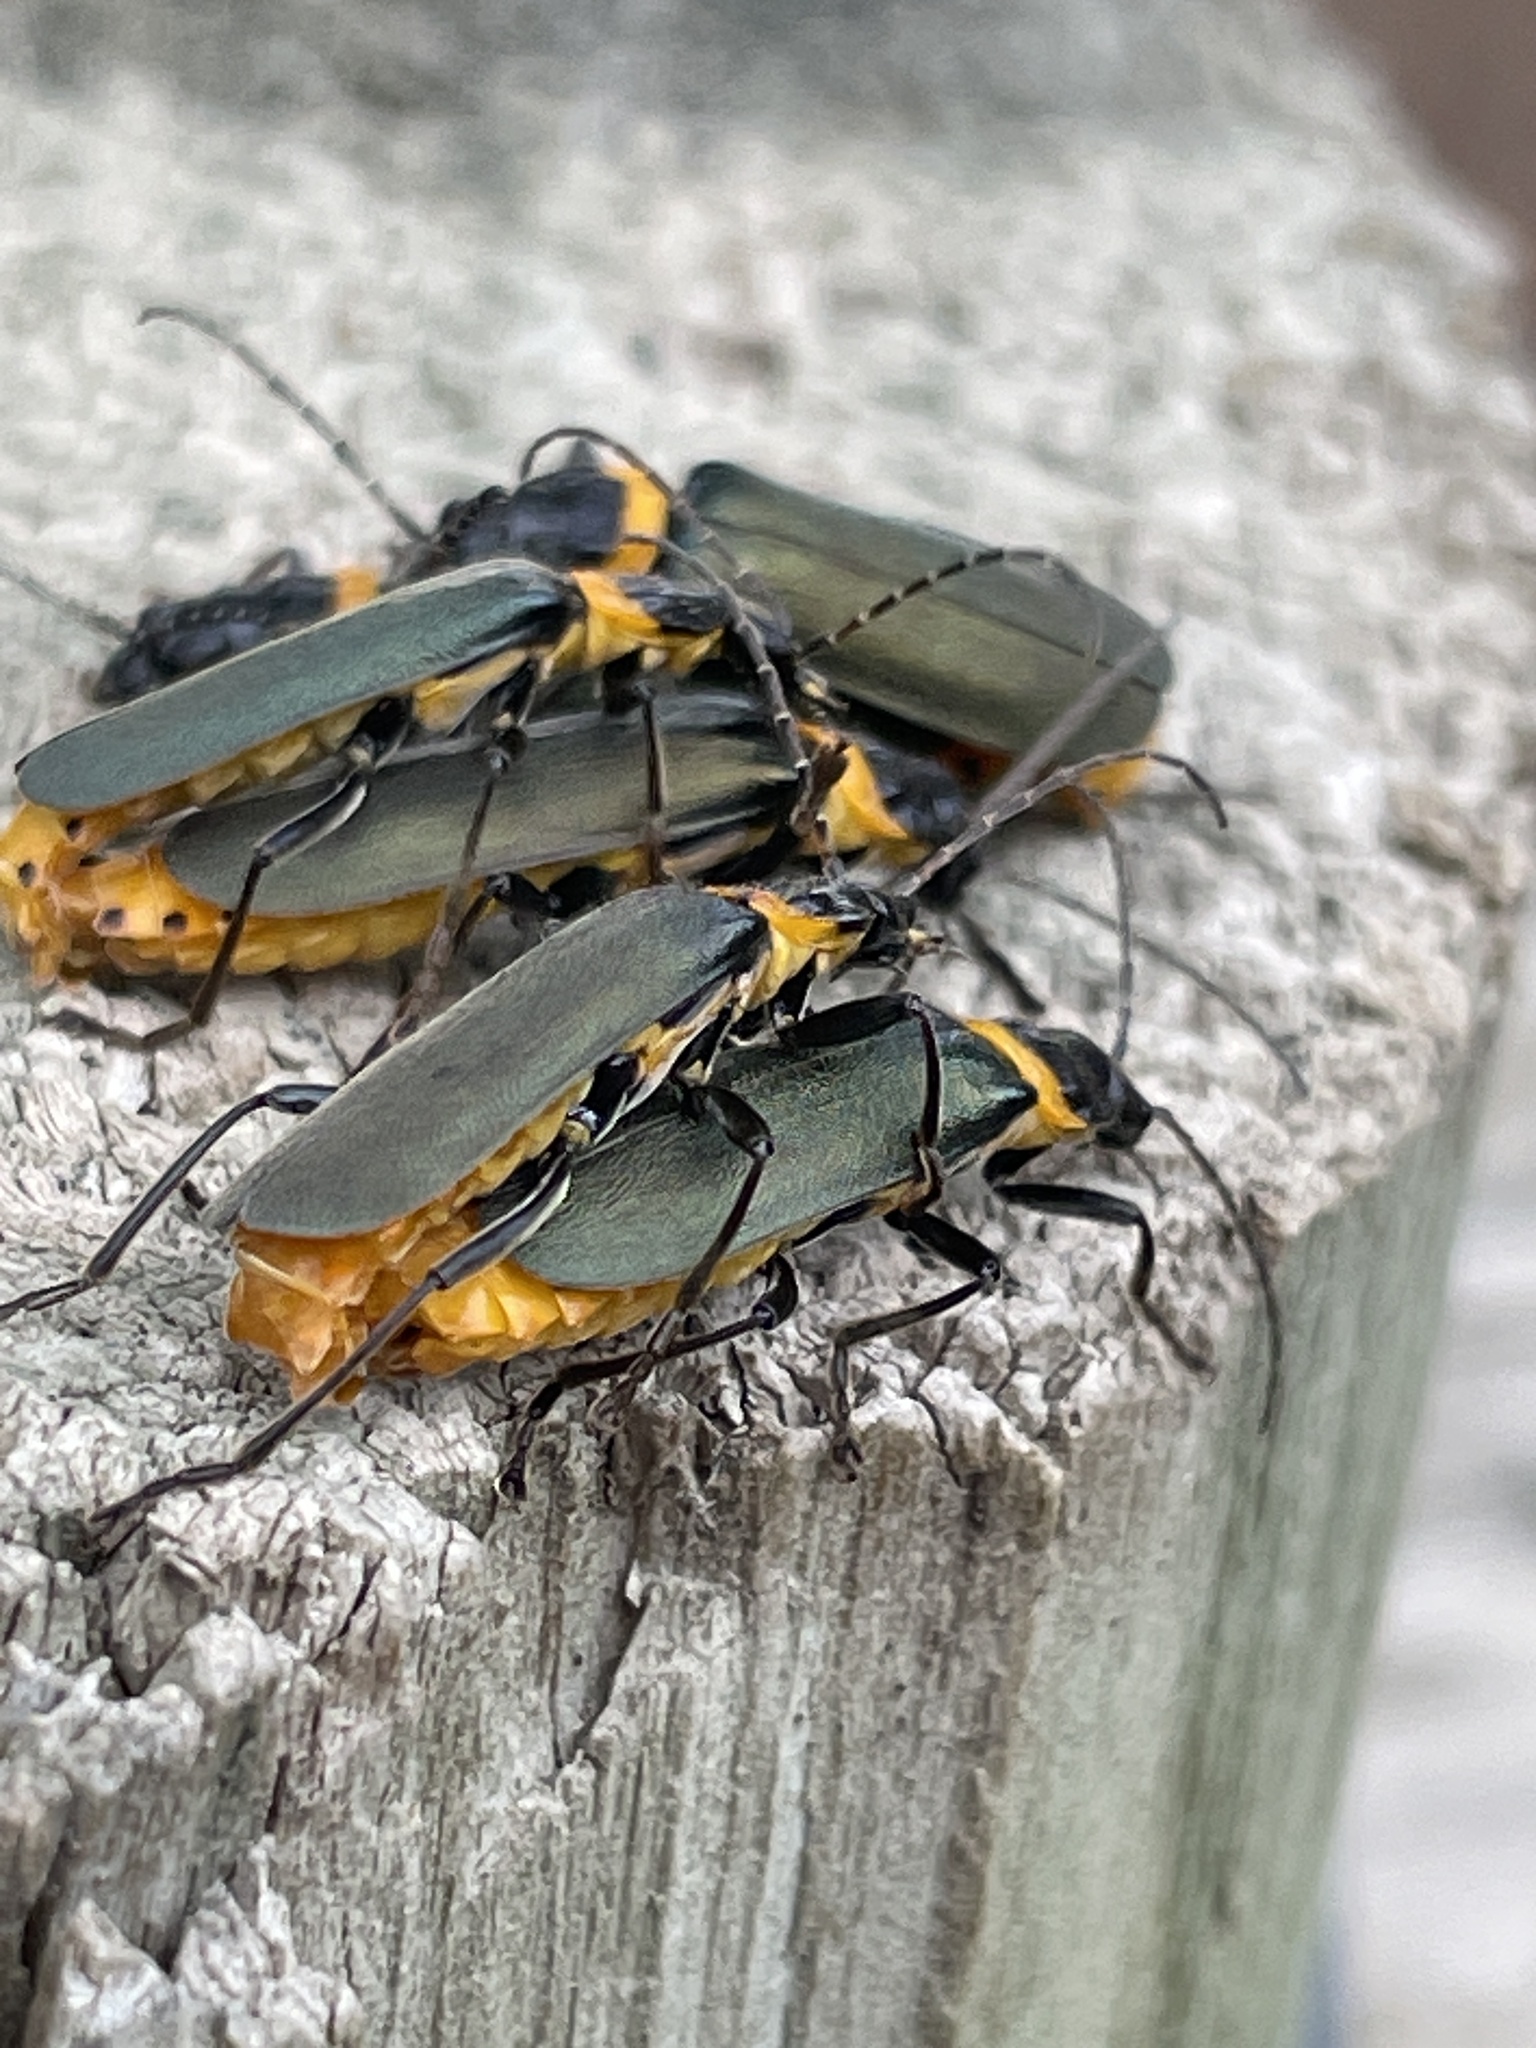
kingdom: Animalia
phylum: Arthropoda
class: Insecta
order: Coleoptera
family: Cantharidae
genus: Chauliognathus
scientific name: Chauliognathus
